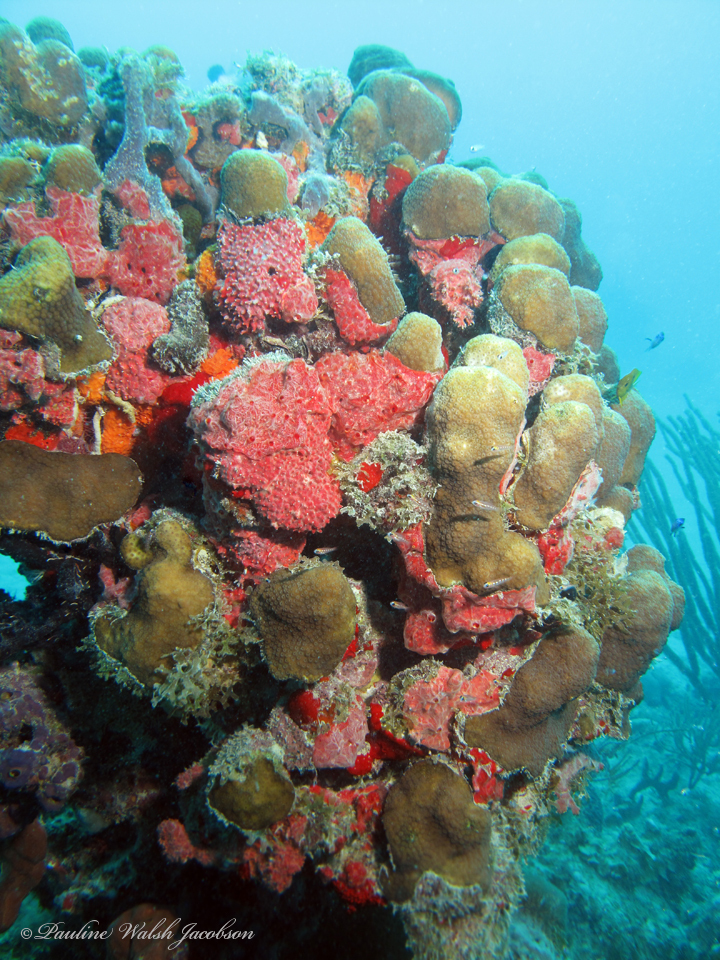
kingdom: Animalia
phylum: Cnidaria
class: Anthozoa
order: Scleractinia
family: Merulinidae
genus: Orbicella
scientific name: Orbicella annularis
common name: Boulder star coral
